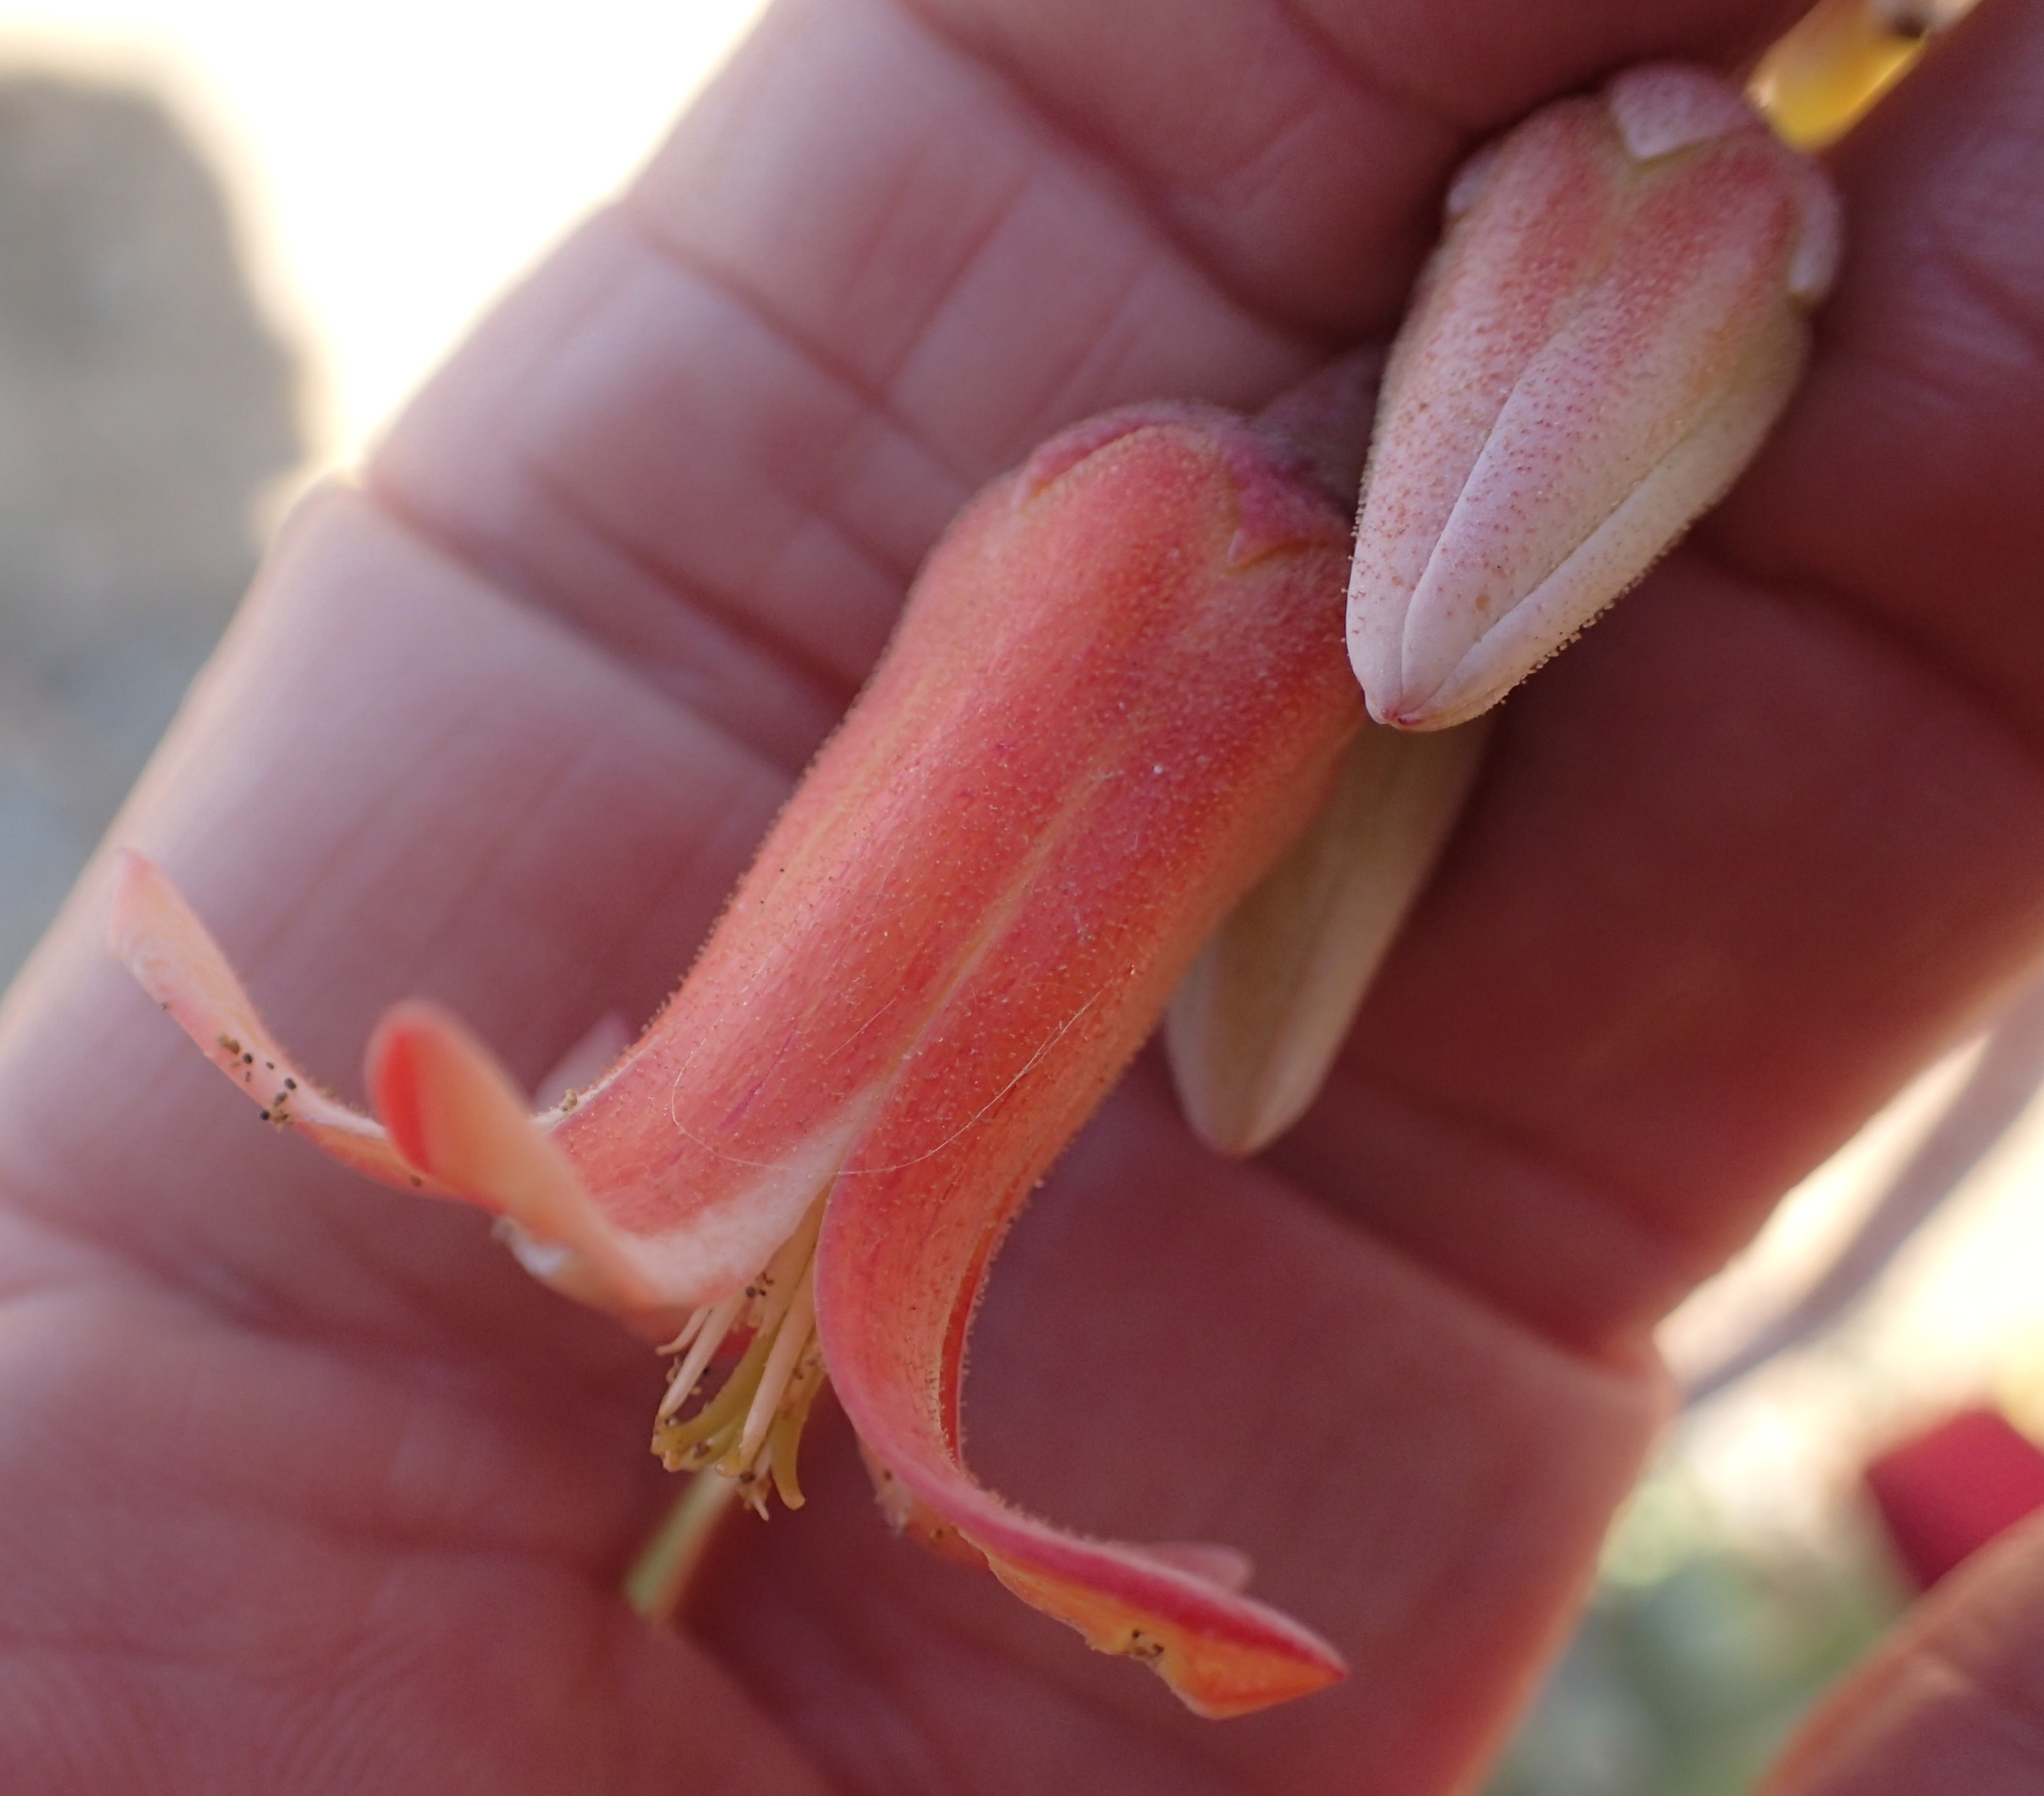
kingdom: Plantae
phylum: Tracheophyta
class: Magnoliopsida
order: Saxifragales
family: Crassulaceae
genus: Cotyledon
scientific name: Cotyledon orbiculata
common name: Pig's ear
